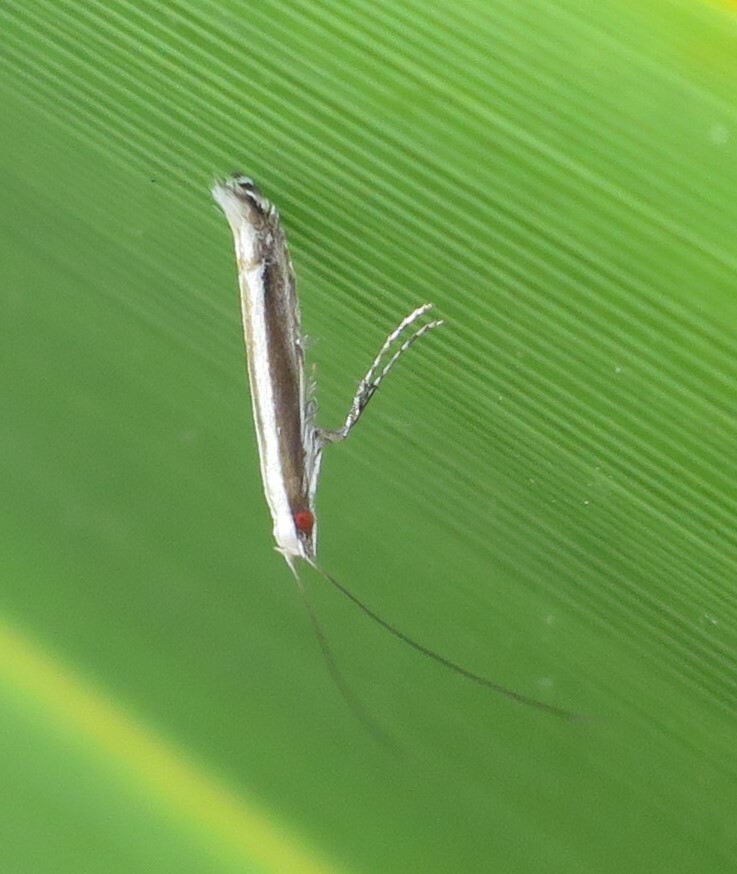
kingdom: Animalia
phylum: Arthropoda
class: Insecta
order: Lepidoptera
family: Gracillariidae
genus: Acrocercops
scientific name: Acrocercops laciniella
